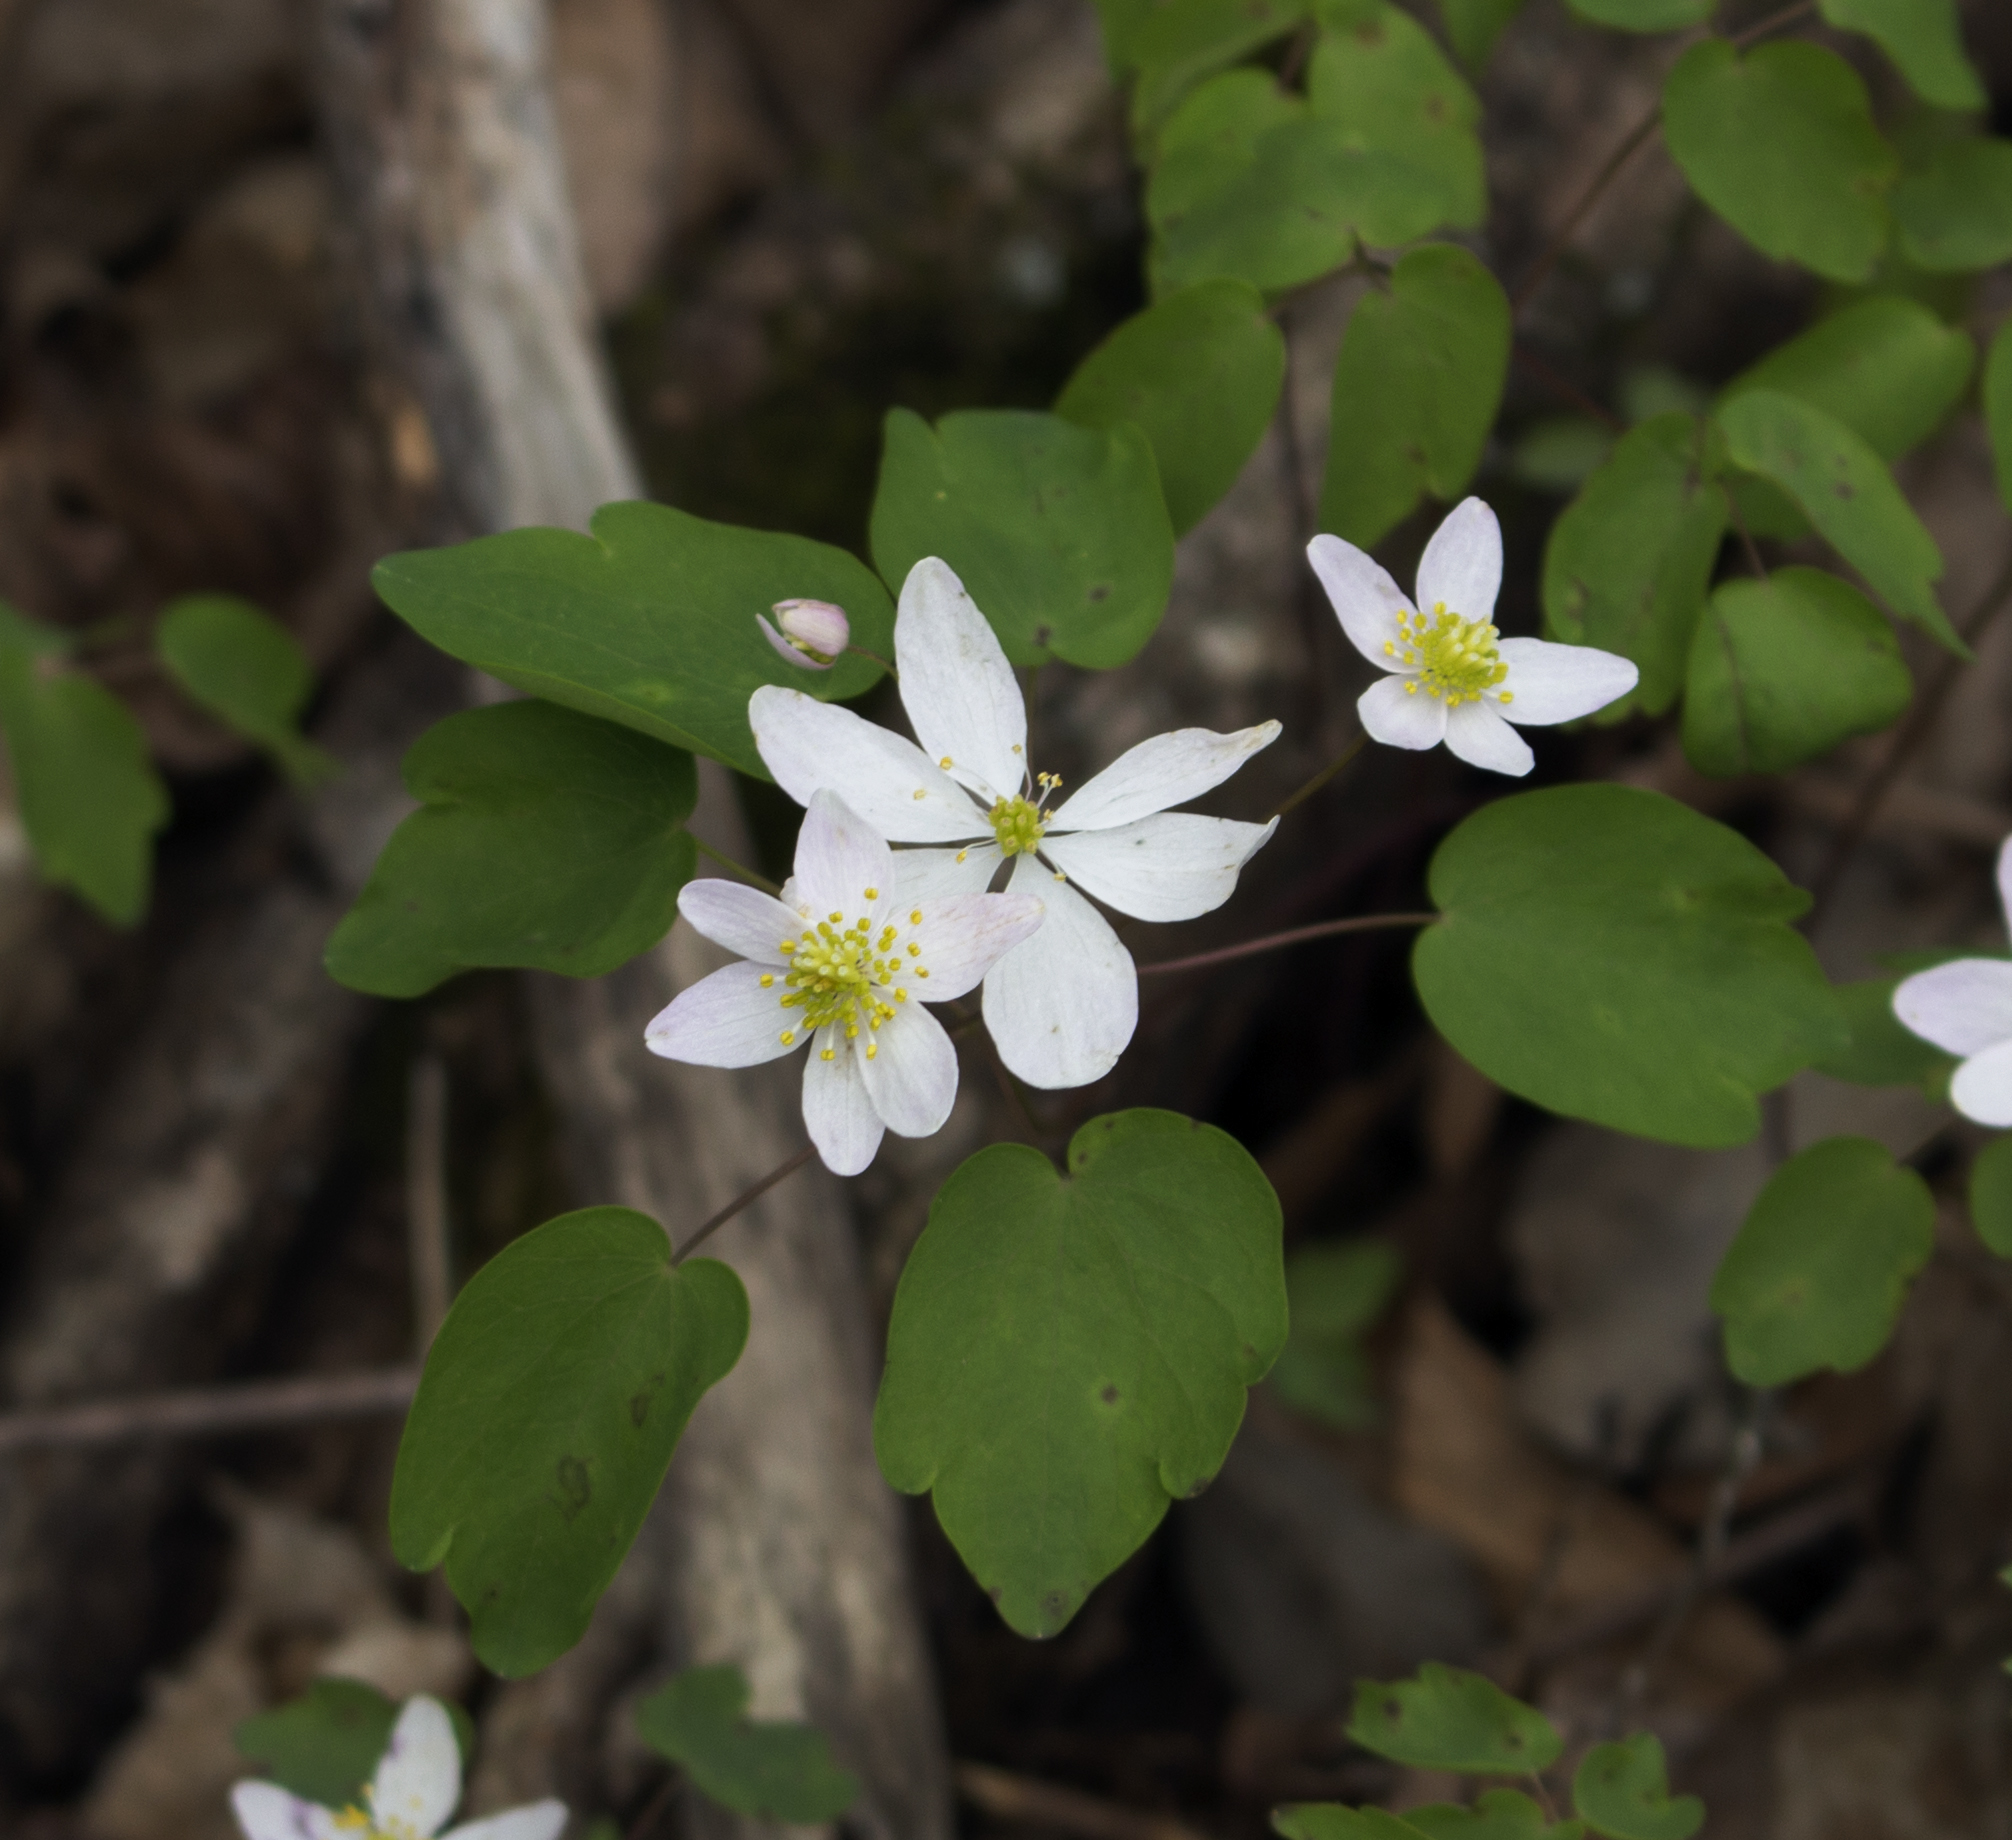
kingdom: Plantae
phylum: Tracheophyta
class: Magnoliopsida
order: Ranunculales
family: Ranunculaceae
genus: Thalictrum
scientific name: Thalictrum thalictroides
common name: Rue-anemone
